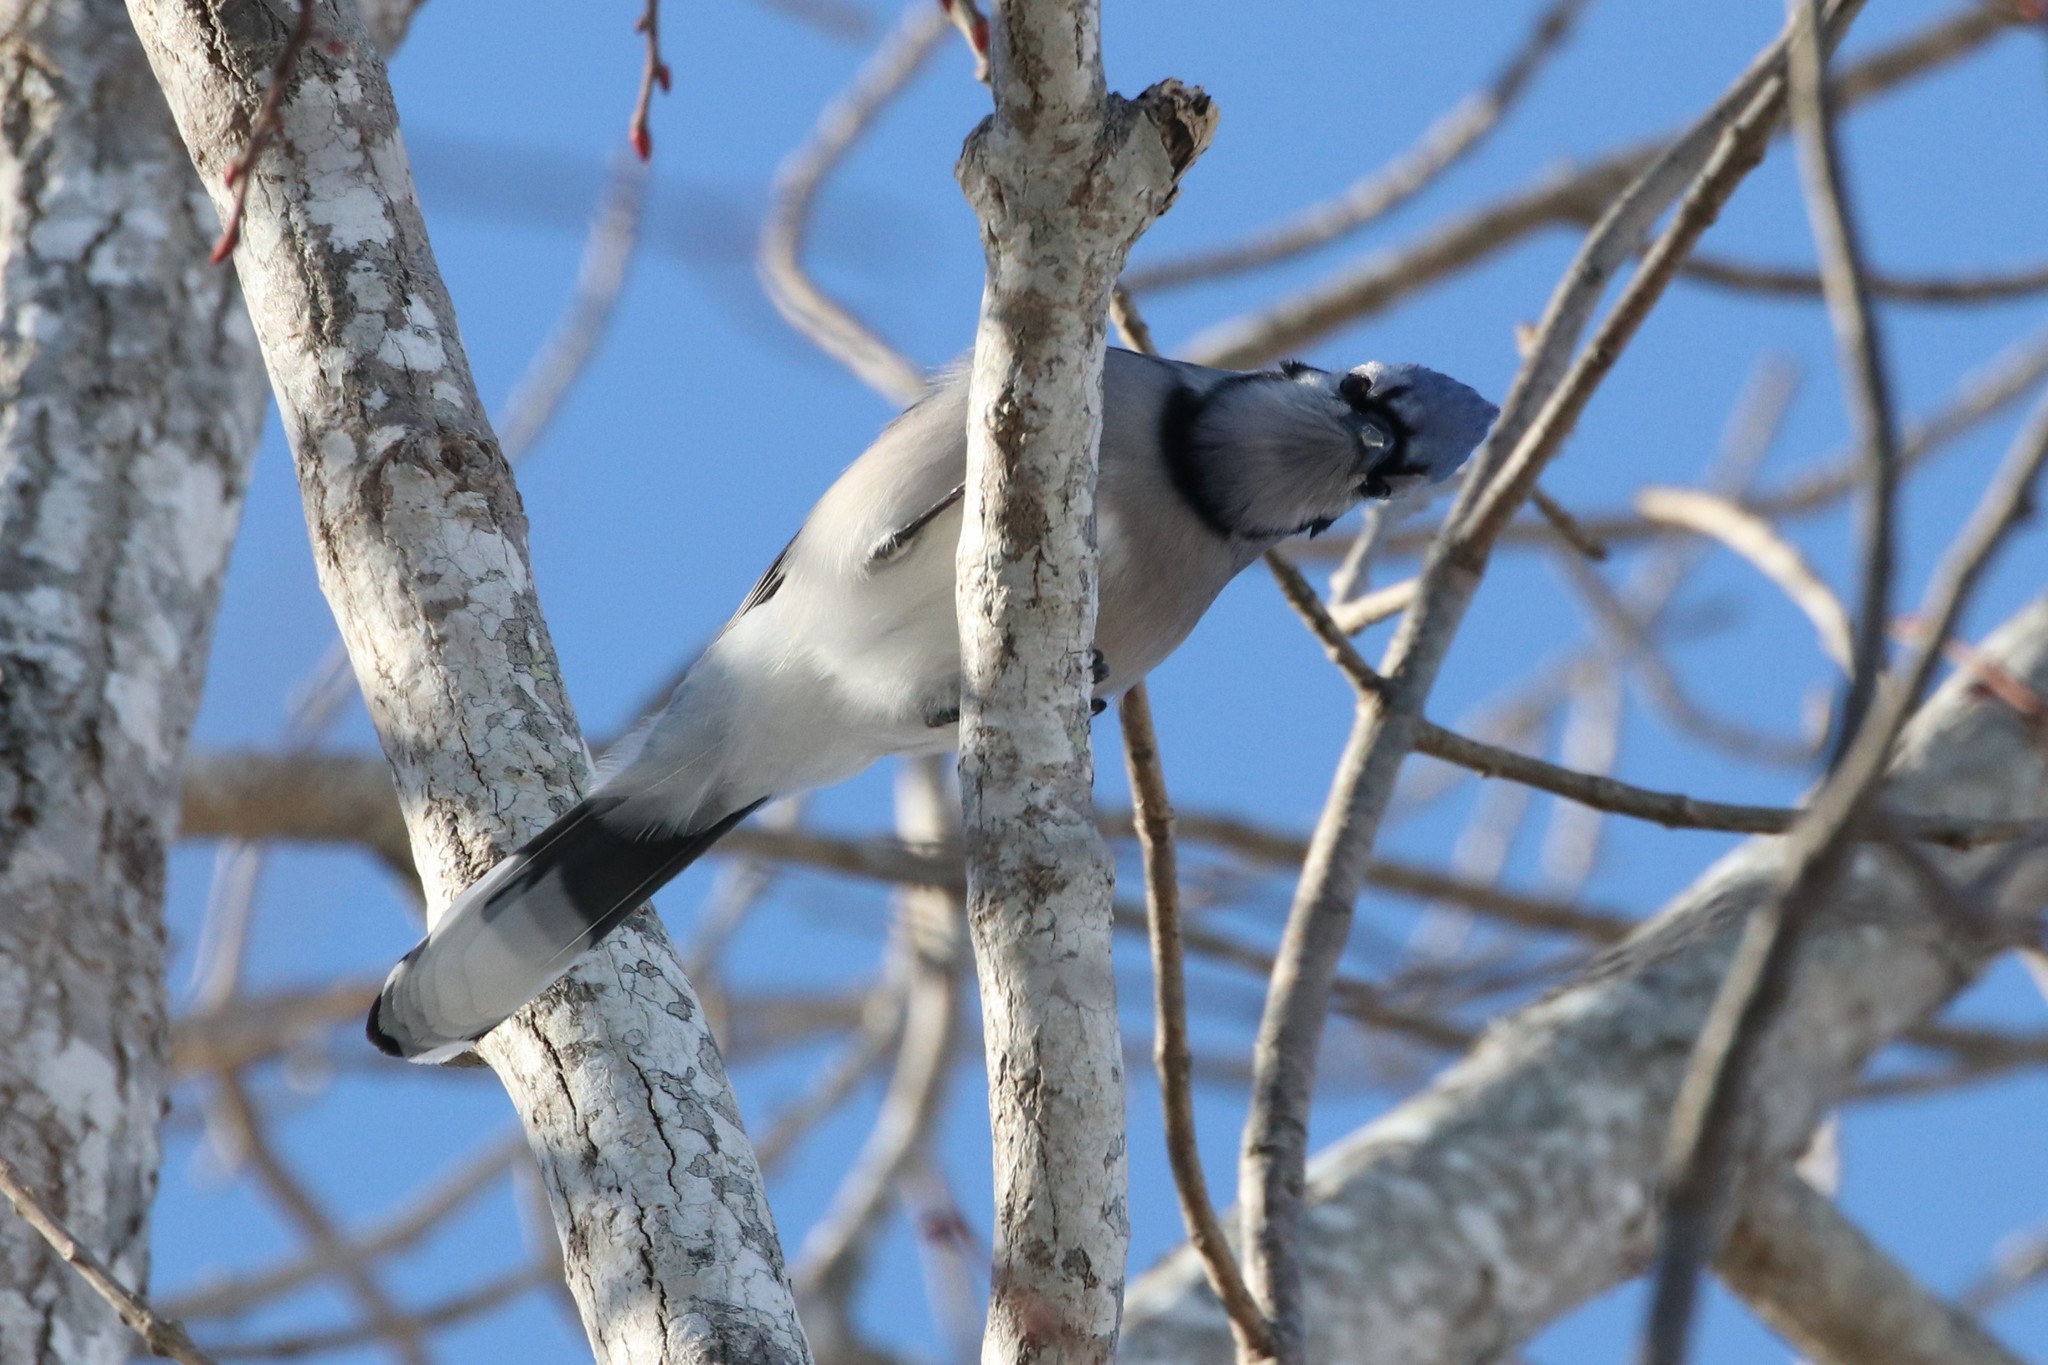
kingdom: Animalia
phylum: Chordata
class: Aves
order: Passeriformes
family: Corvidae
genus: Cyanocitta
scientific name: Cyanocitta cristata
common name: Blue jay
